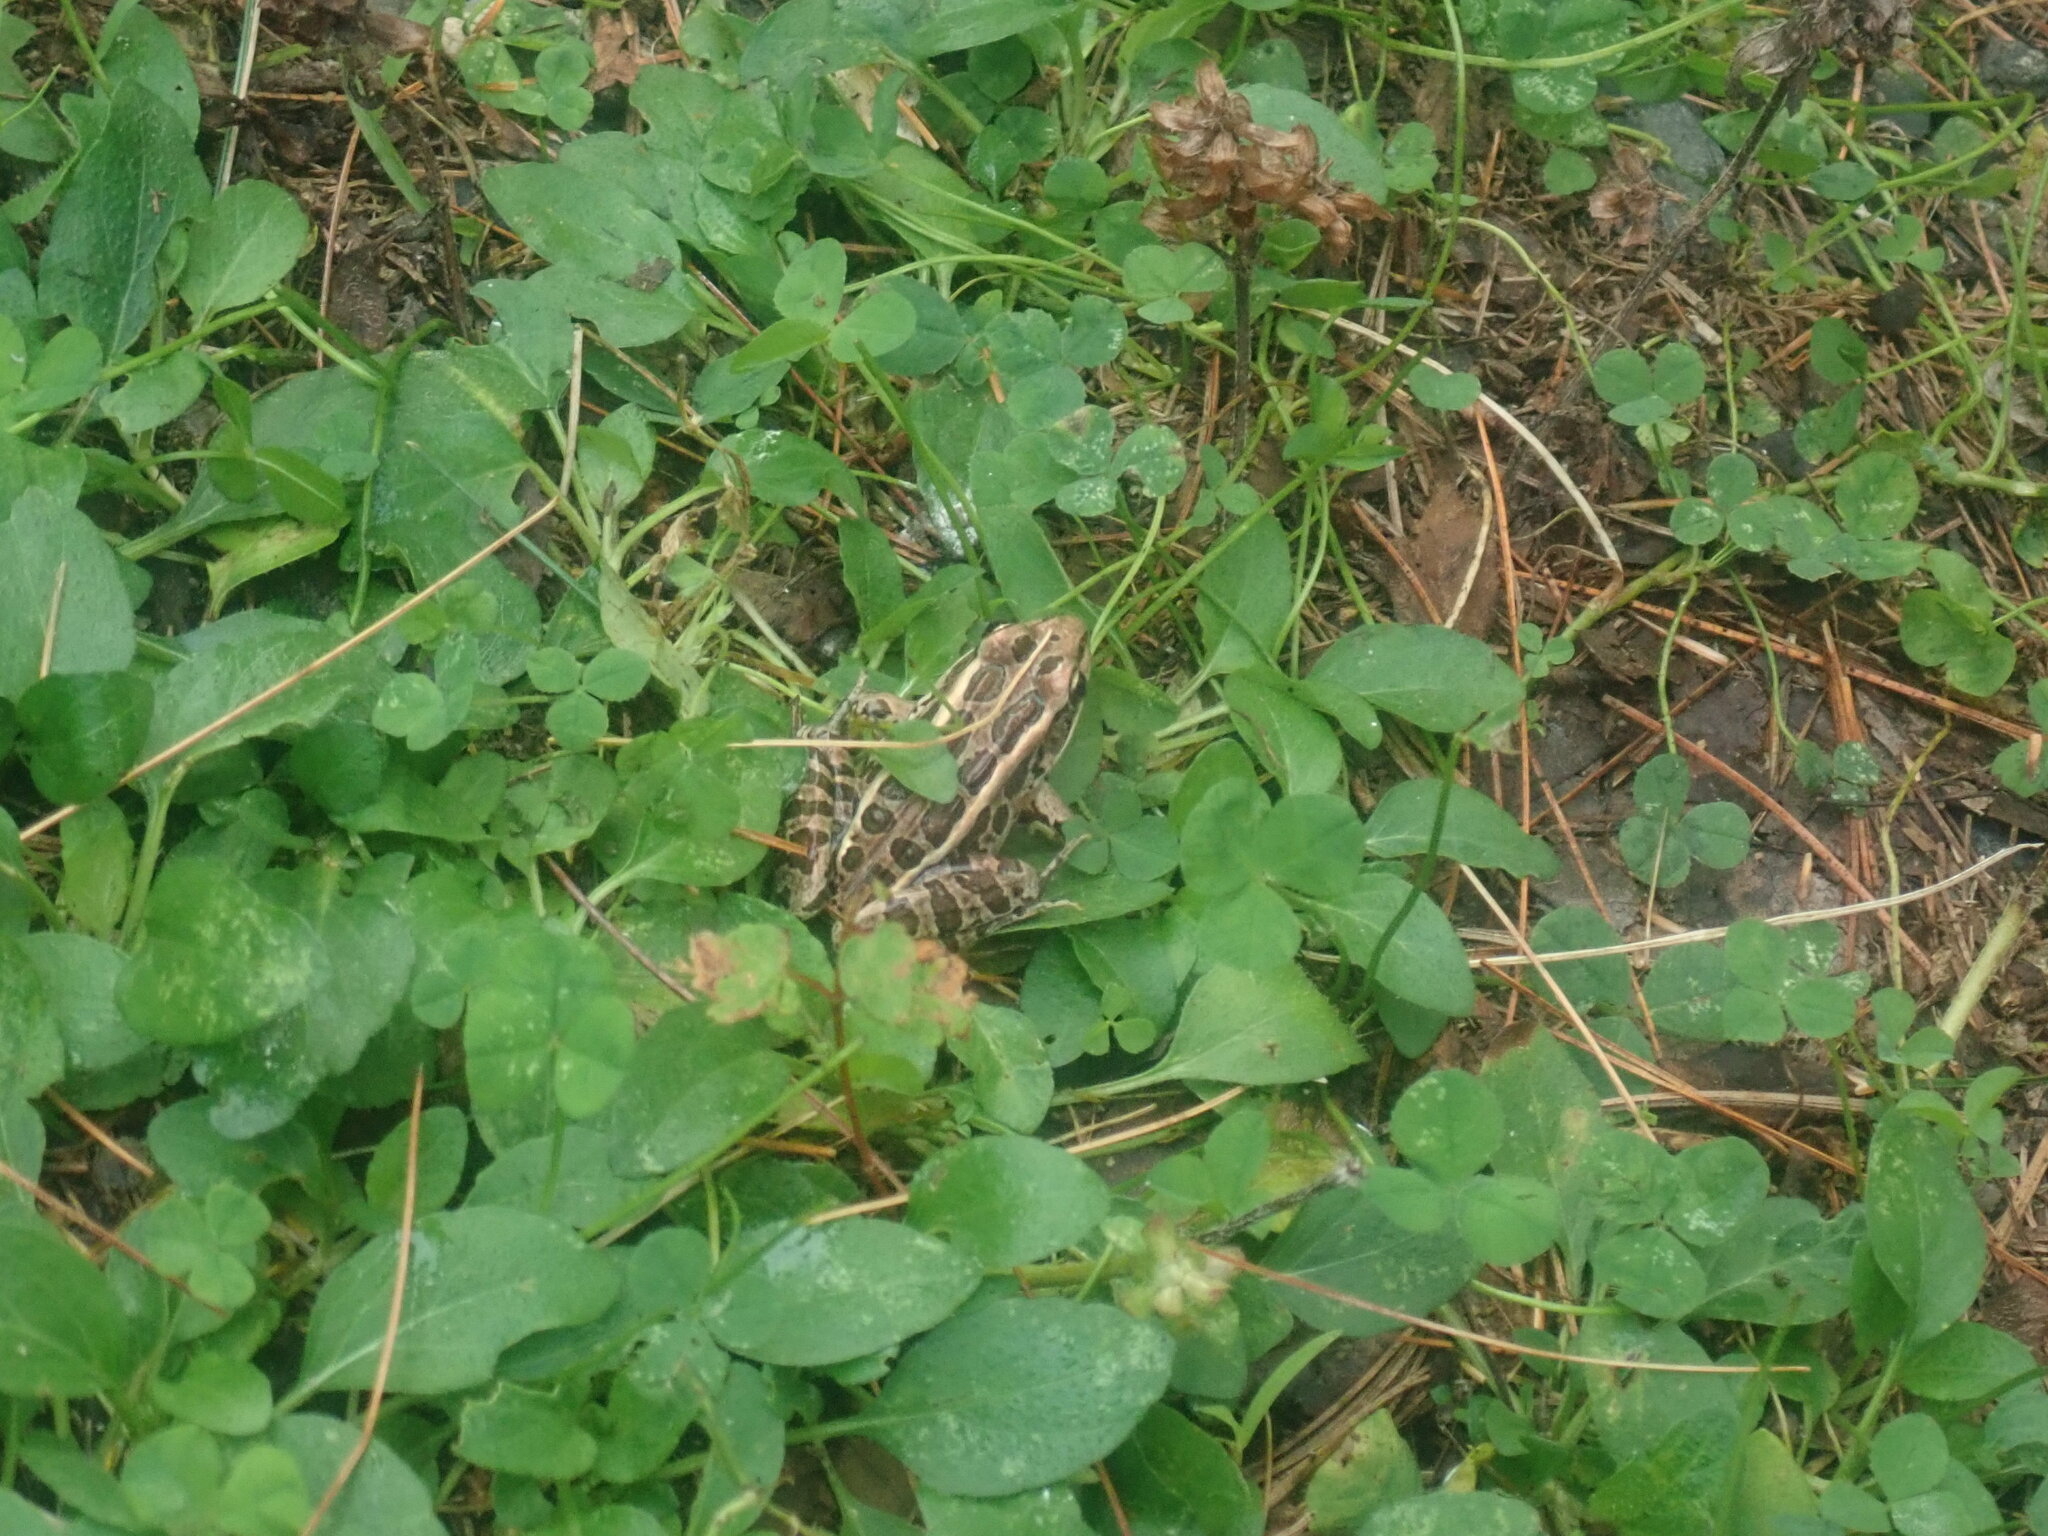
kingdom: Animalia
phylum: Chordata
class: Amphibia
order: Anura
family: Ranidae
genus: Lithobates
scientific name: Lithobates palustris
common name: Pickerel frog
